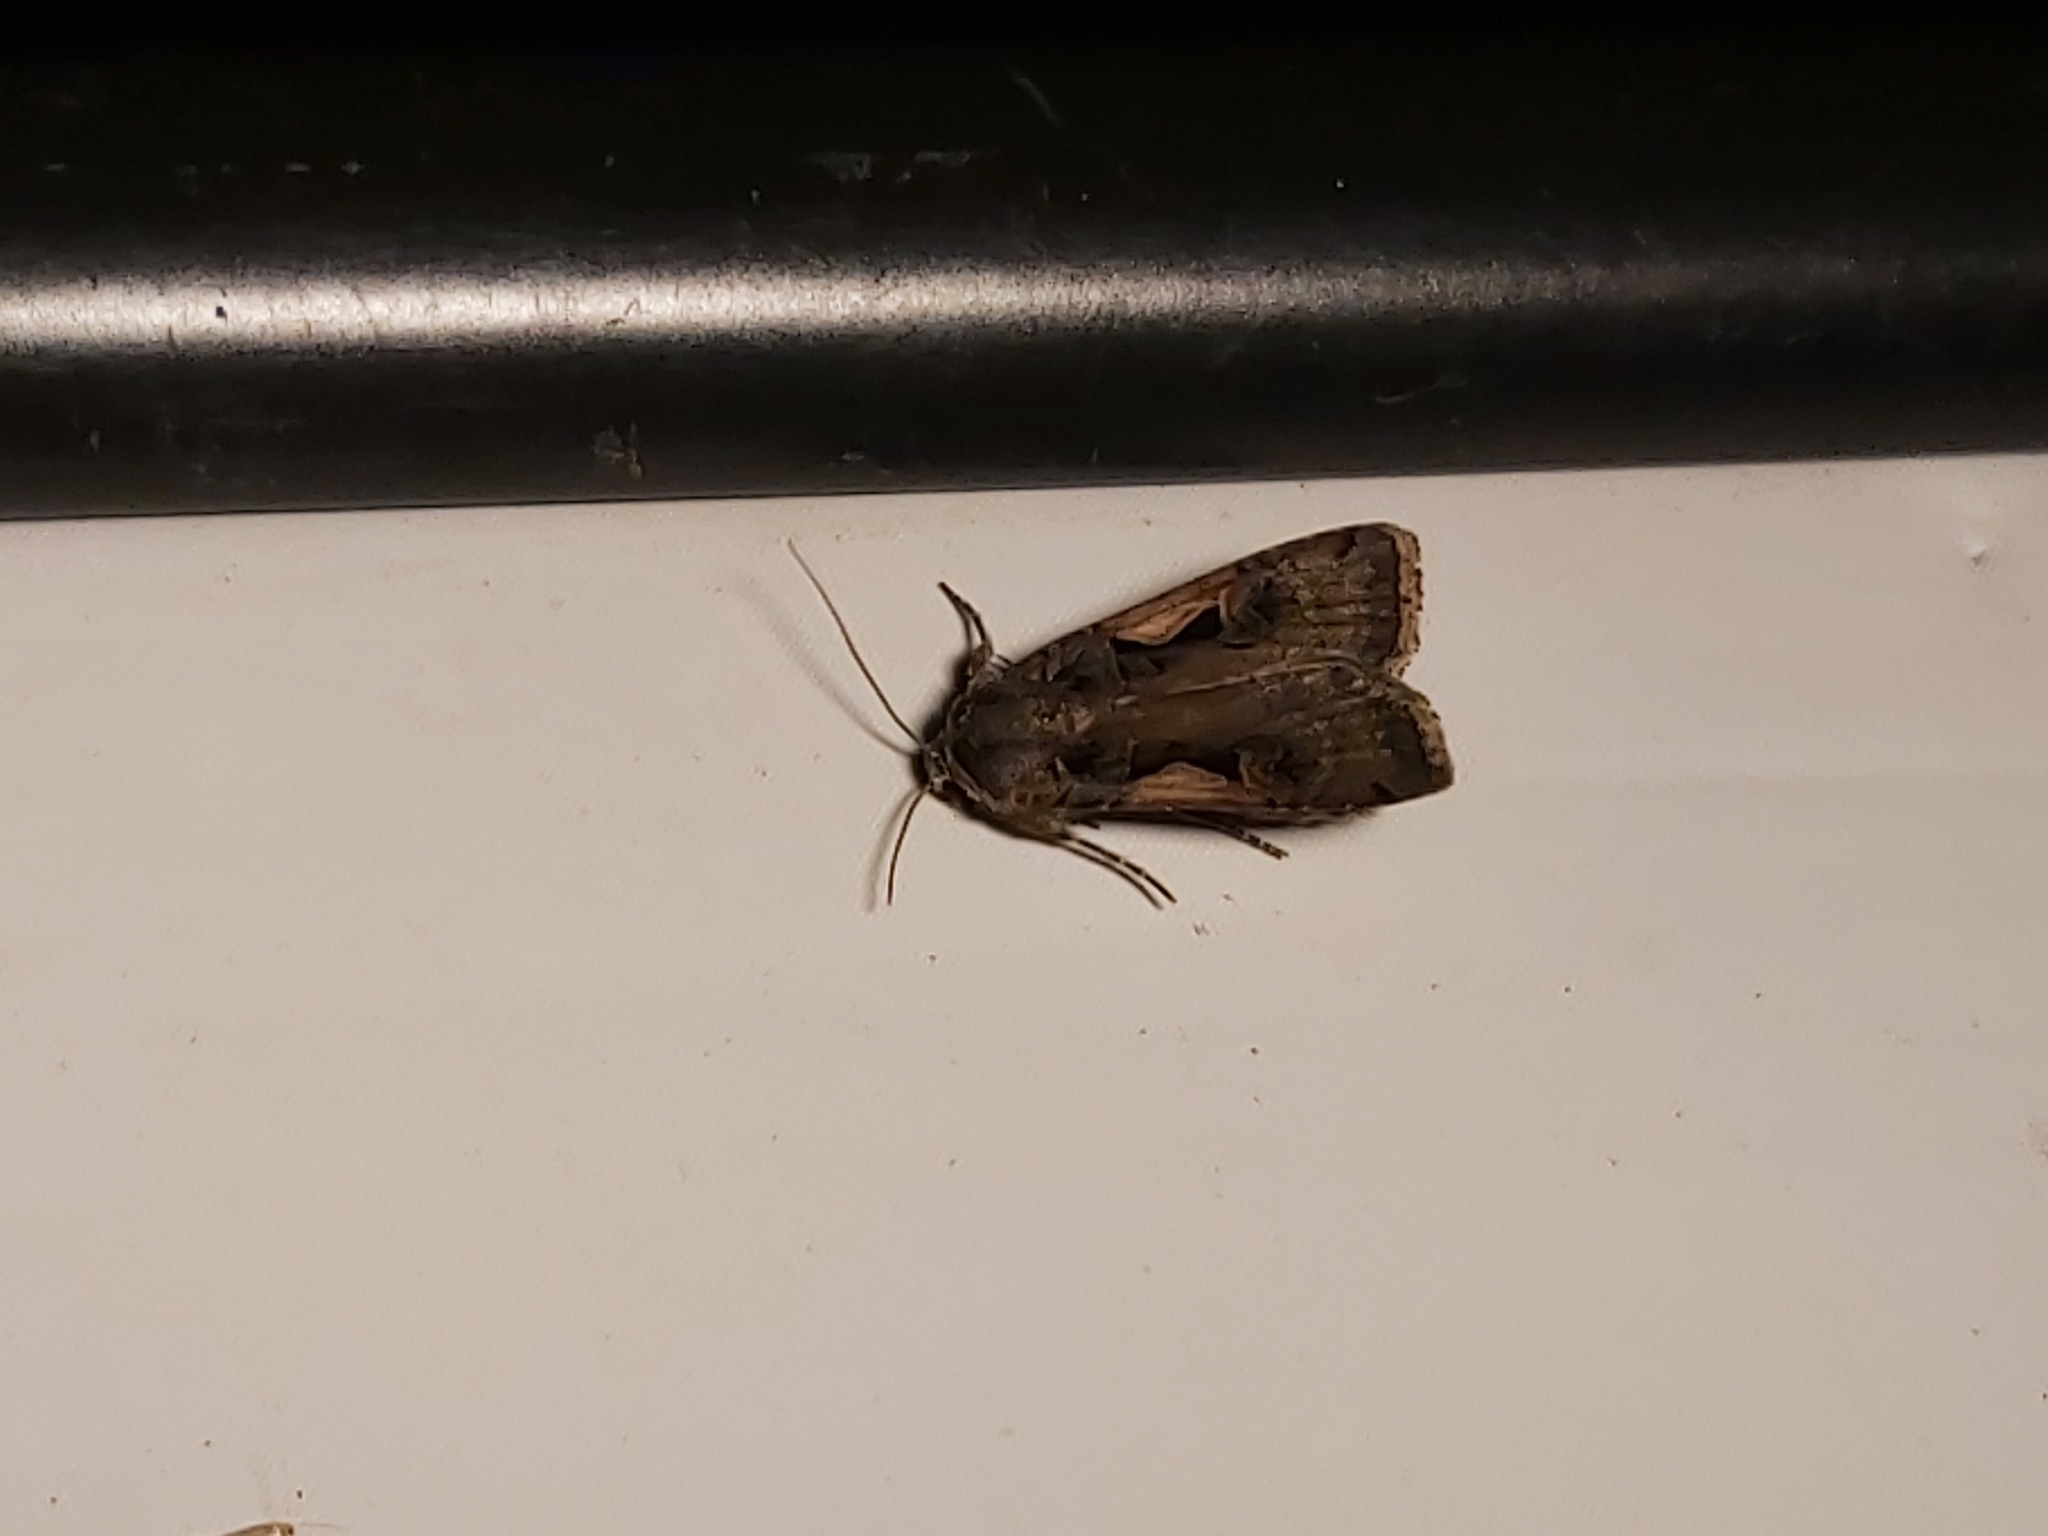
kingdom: Animalia
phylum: Arthropoda
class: Insecta
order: Lepidoptera
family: Noctuidae
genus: Xestia
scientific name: Xestia c-nigrum
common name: Setaceous hebrew character
